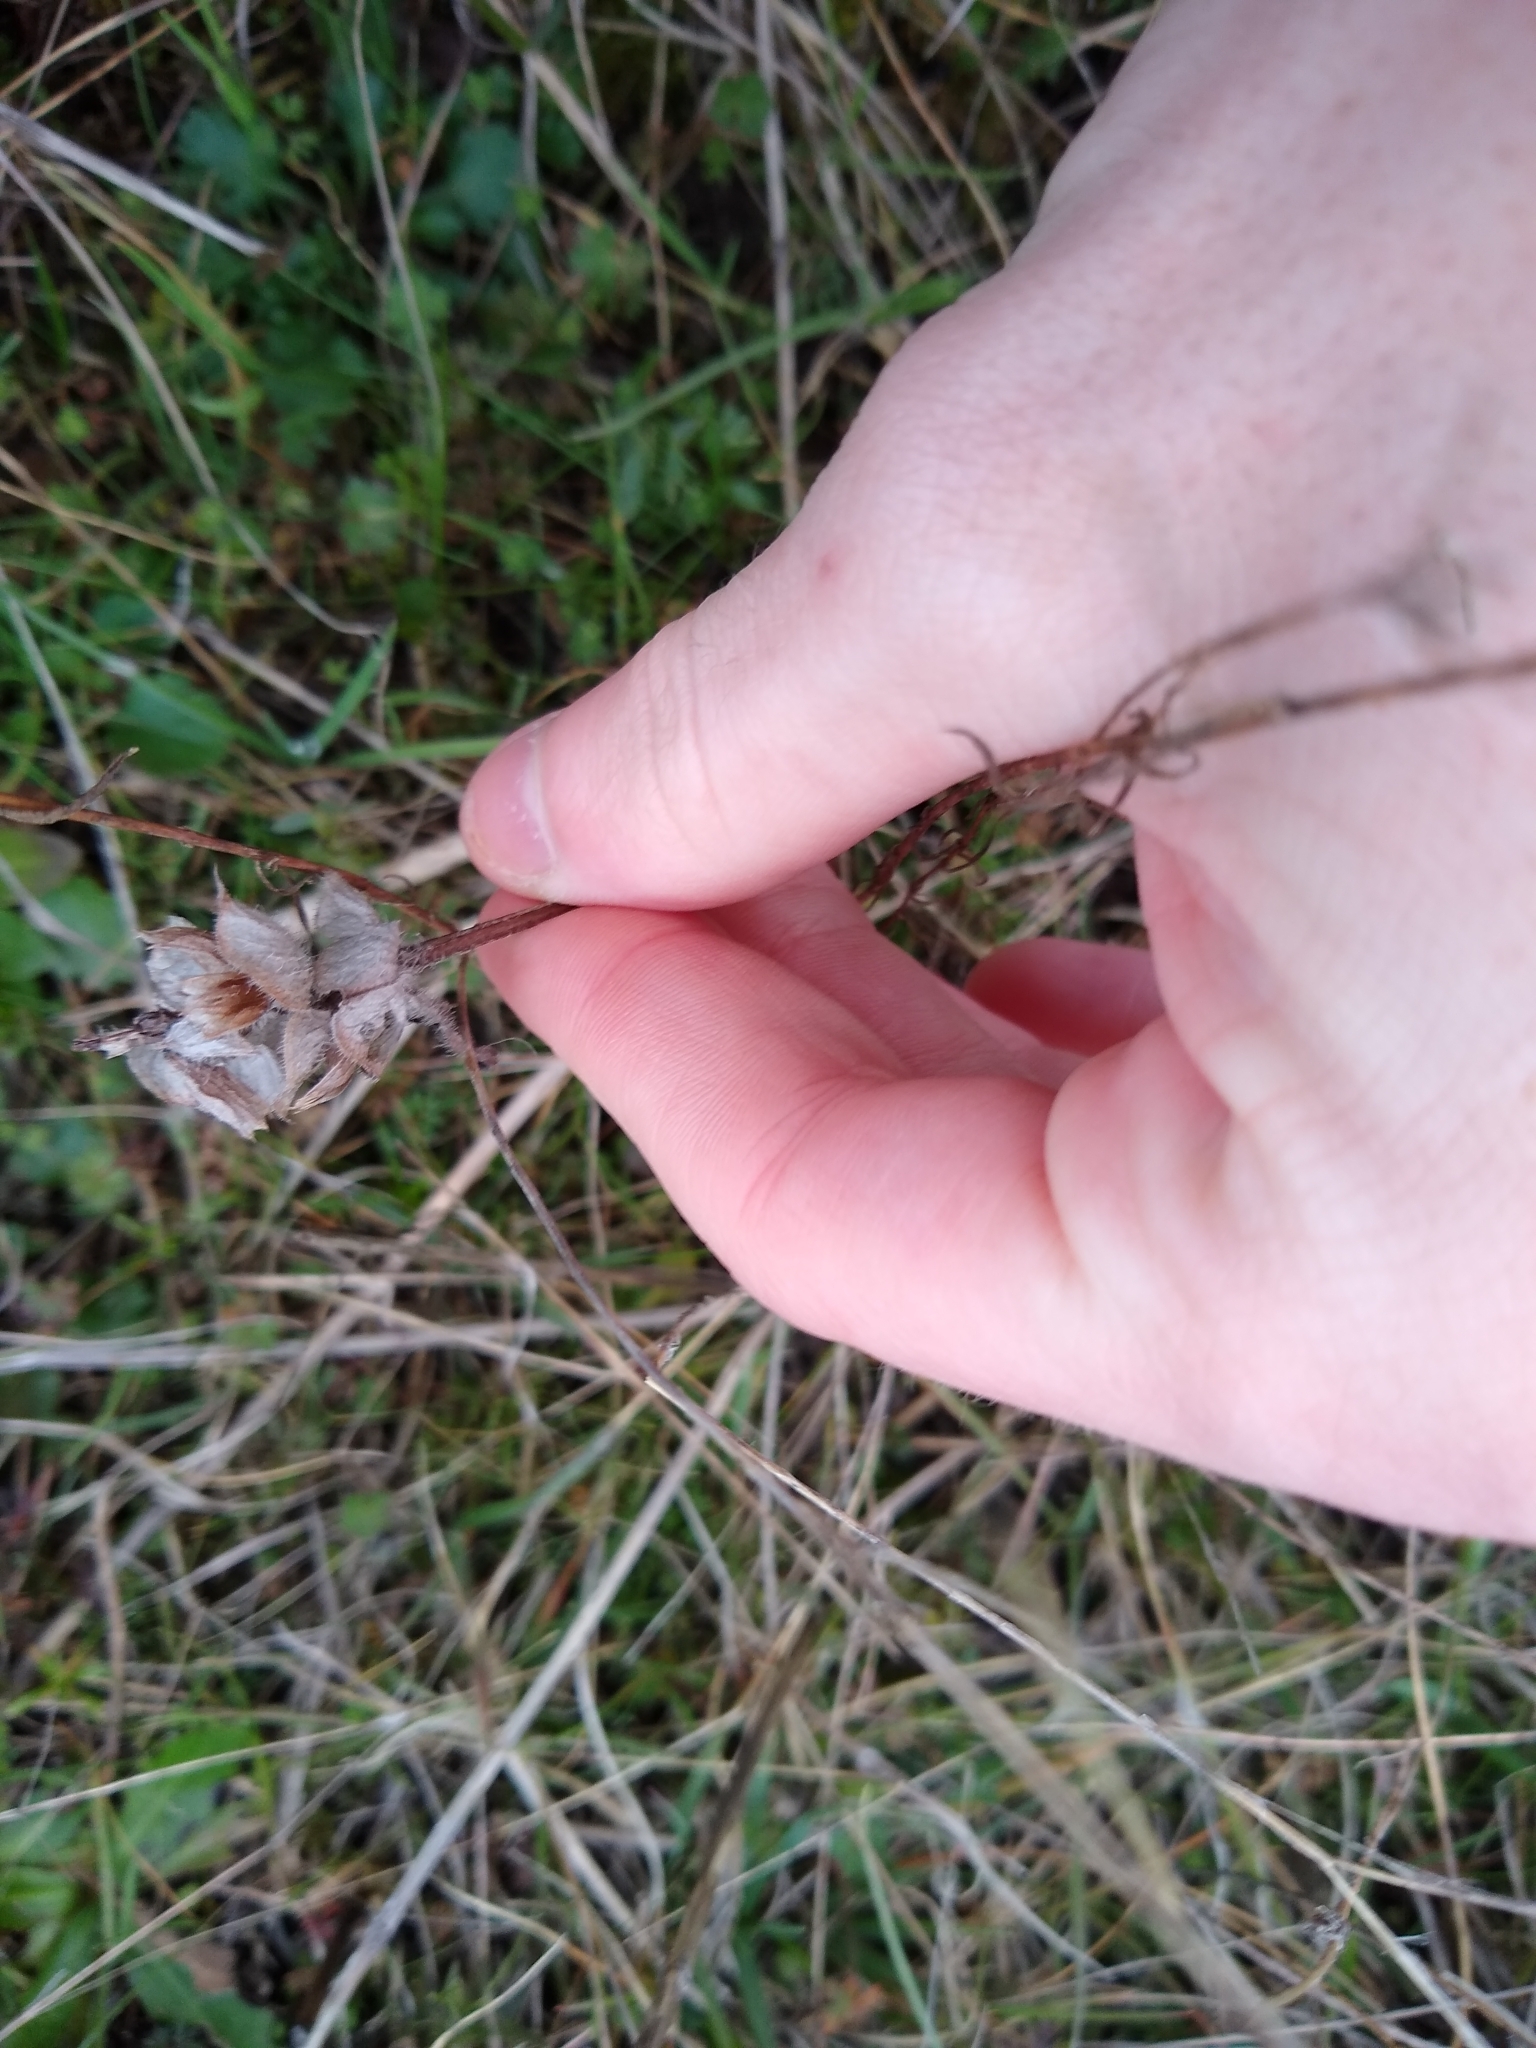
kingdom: Plantae
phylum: Tracheophyta
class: Magnoliopsida
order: Lamiales
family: Lamiaceae
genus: Prunella
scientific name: Prunella vulgaris
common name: Heal-all
